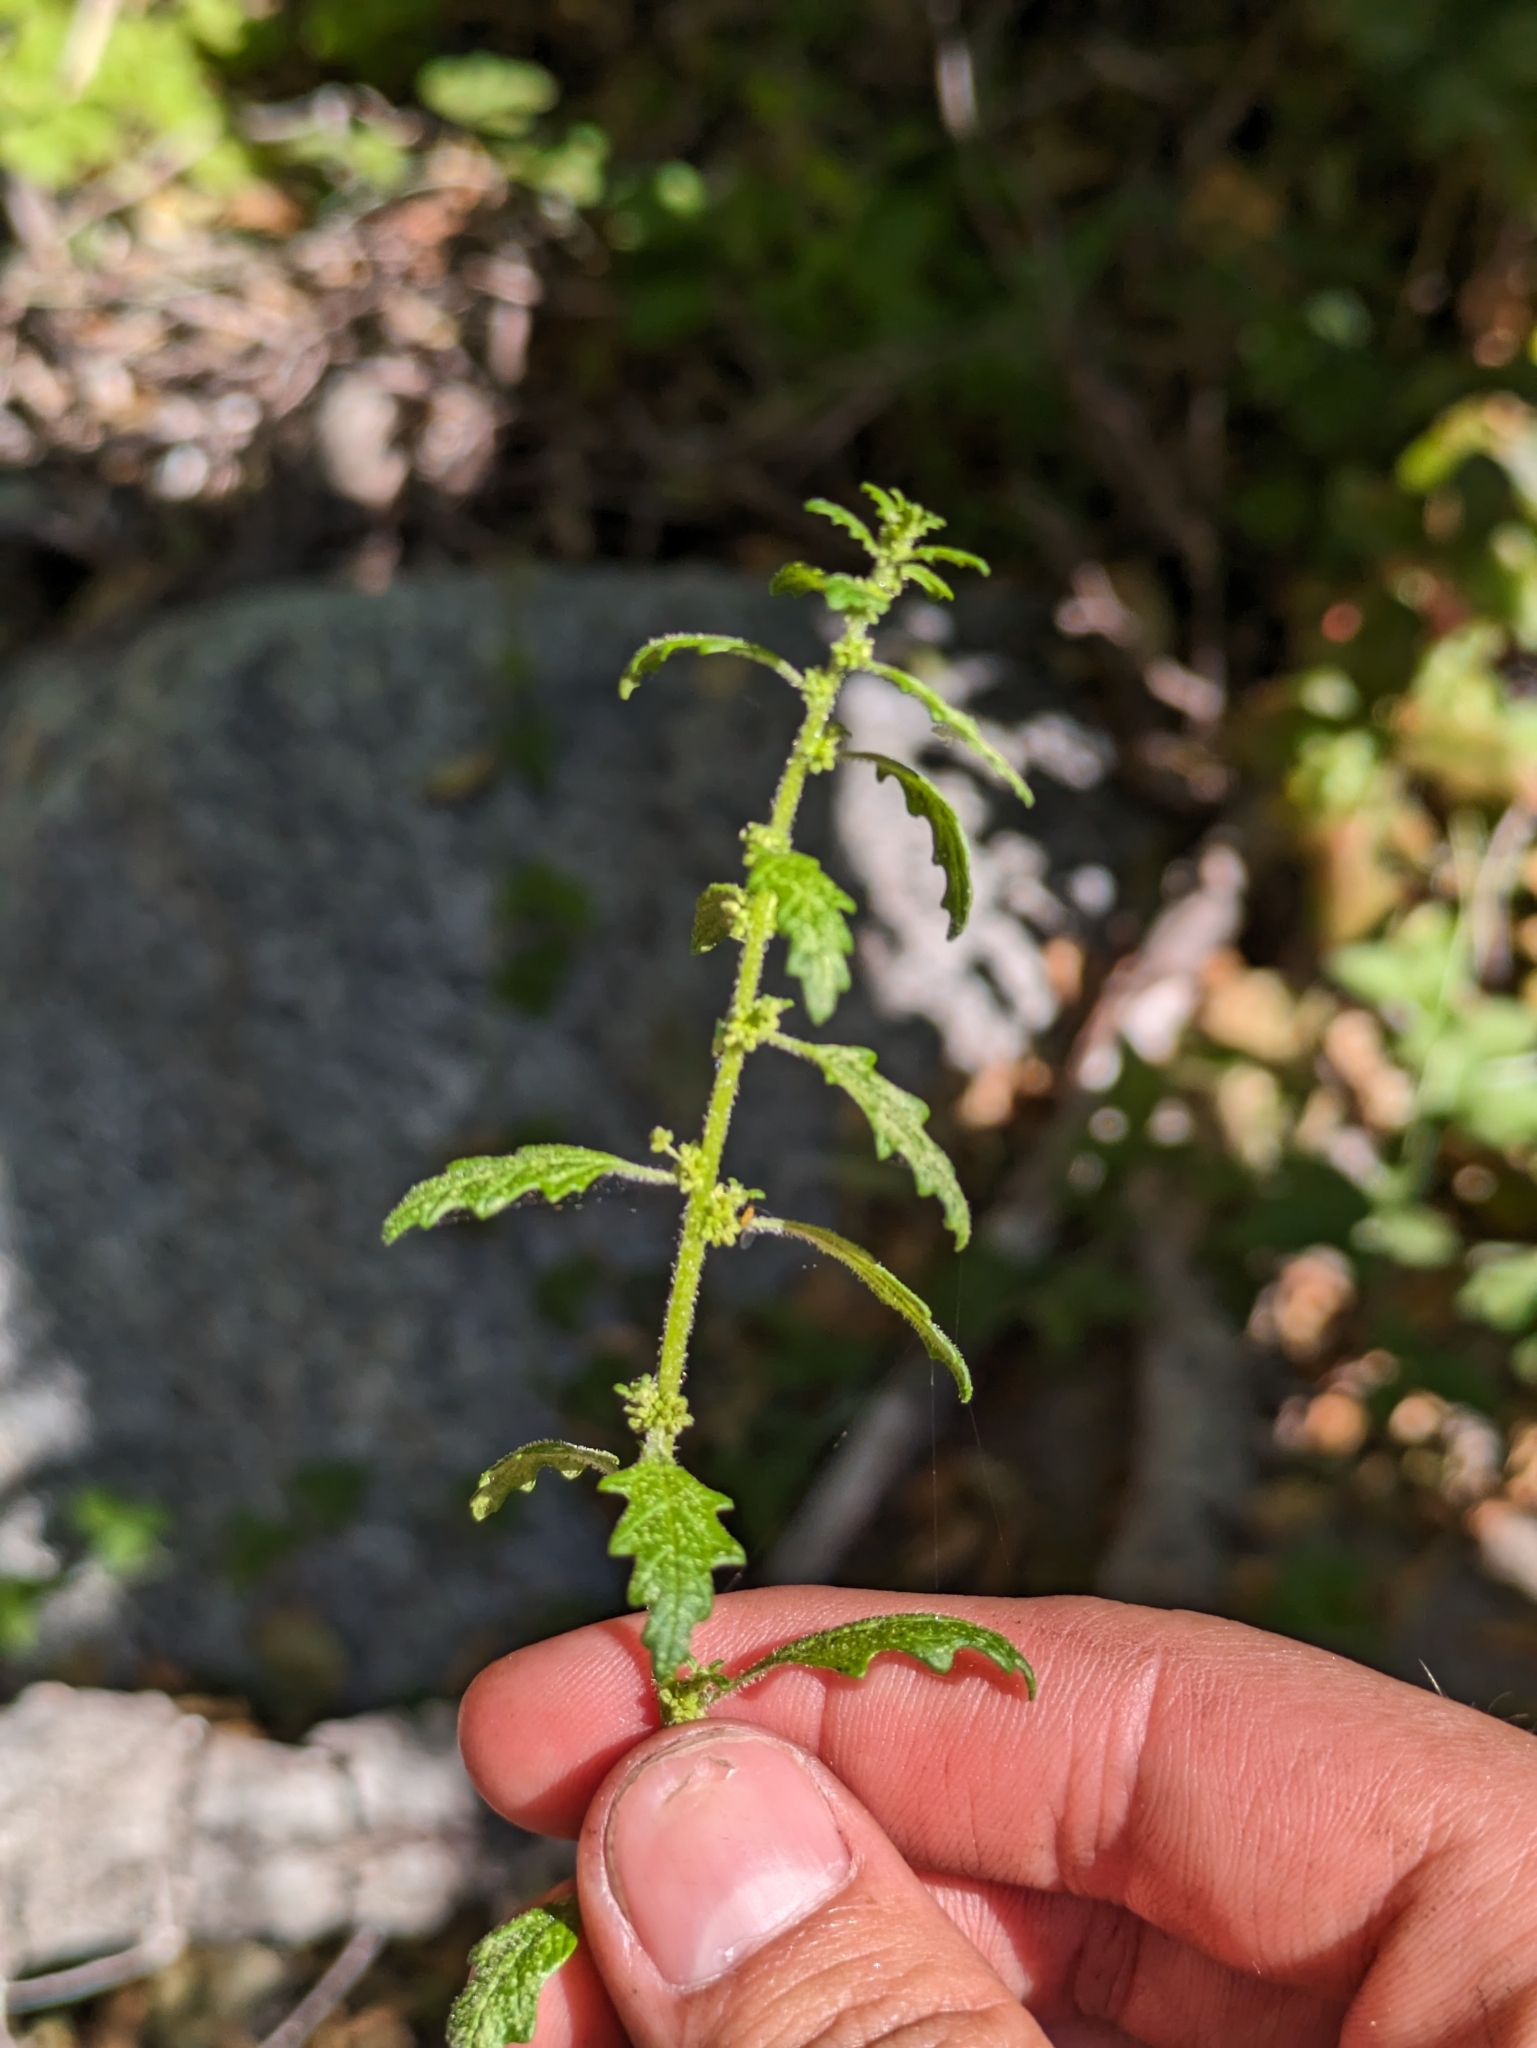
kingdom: Plantae
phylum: Tracheophyta
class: Magnoliopsida
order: Caryophyllales
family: Amaranthaceae
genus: Dysphania
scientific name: Dysphania pumilio
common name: Clammy goosefoot
